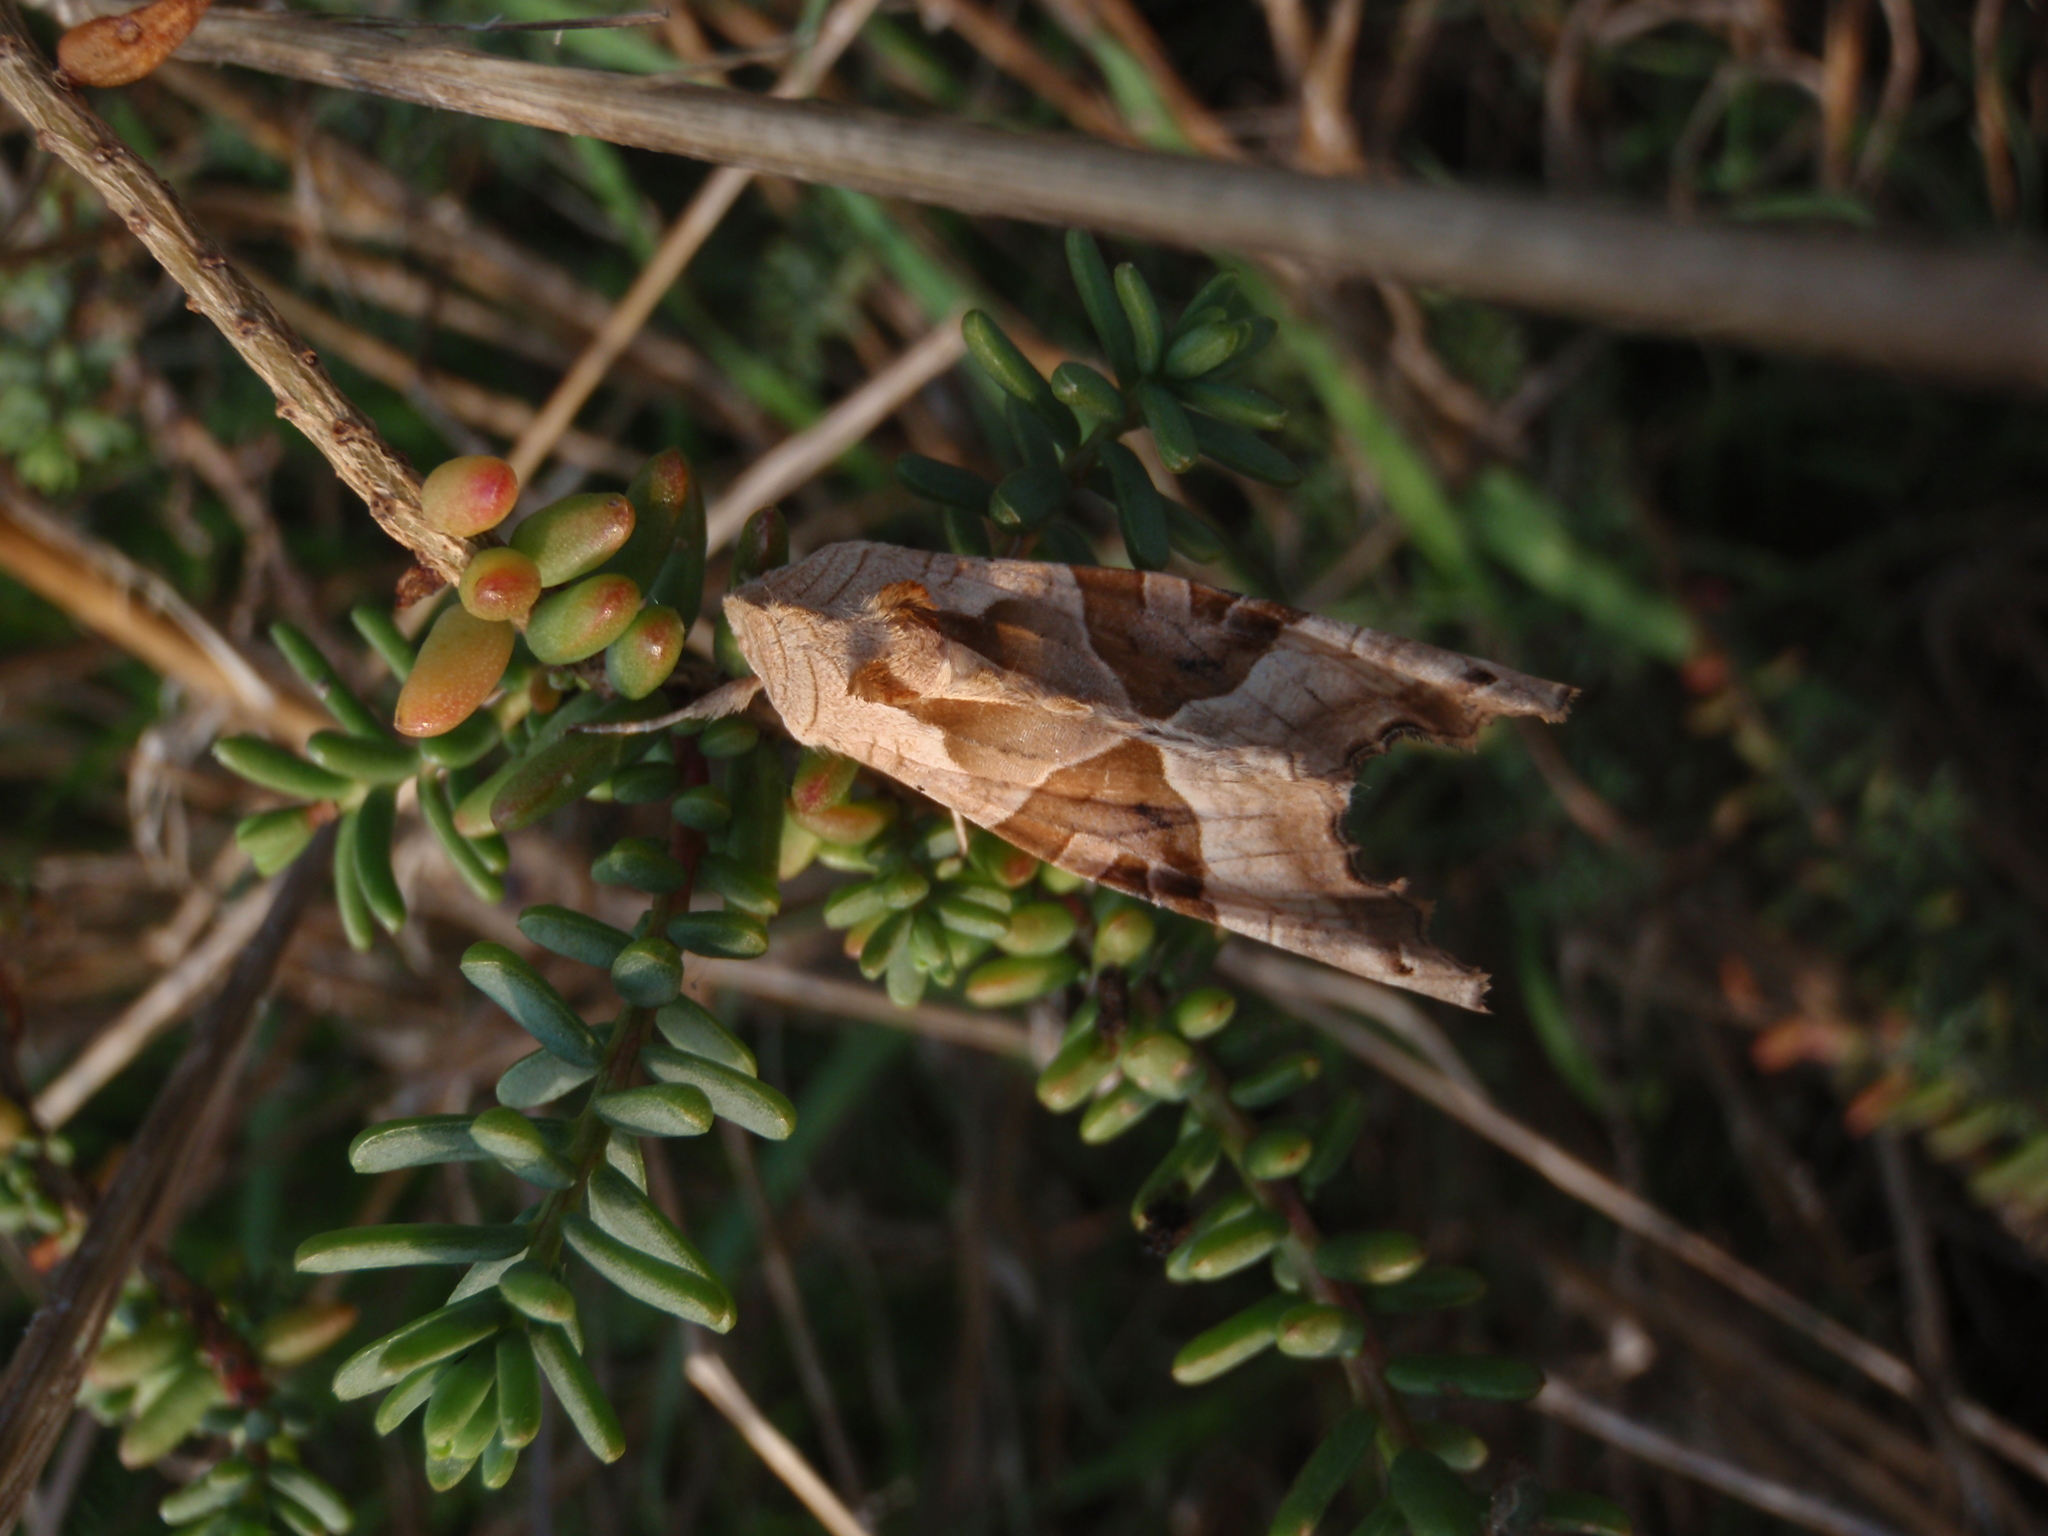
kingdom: Animalia
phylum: Arthropoda
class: Insecta
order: Lepidoptera
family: Noctuidae
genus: Phlogophora
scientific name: Phlogophora meticulosa
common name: Angle shades
